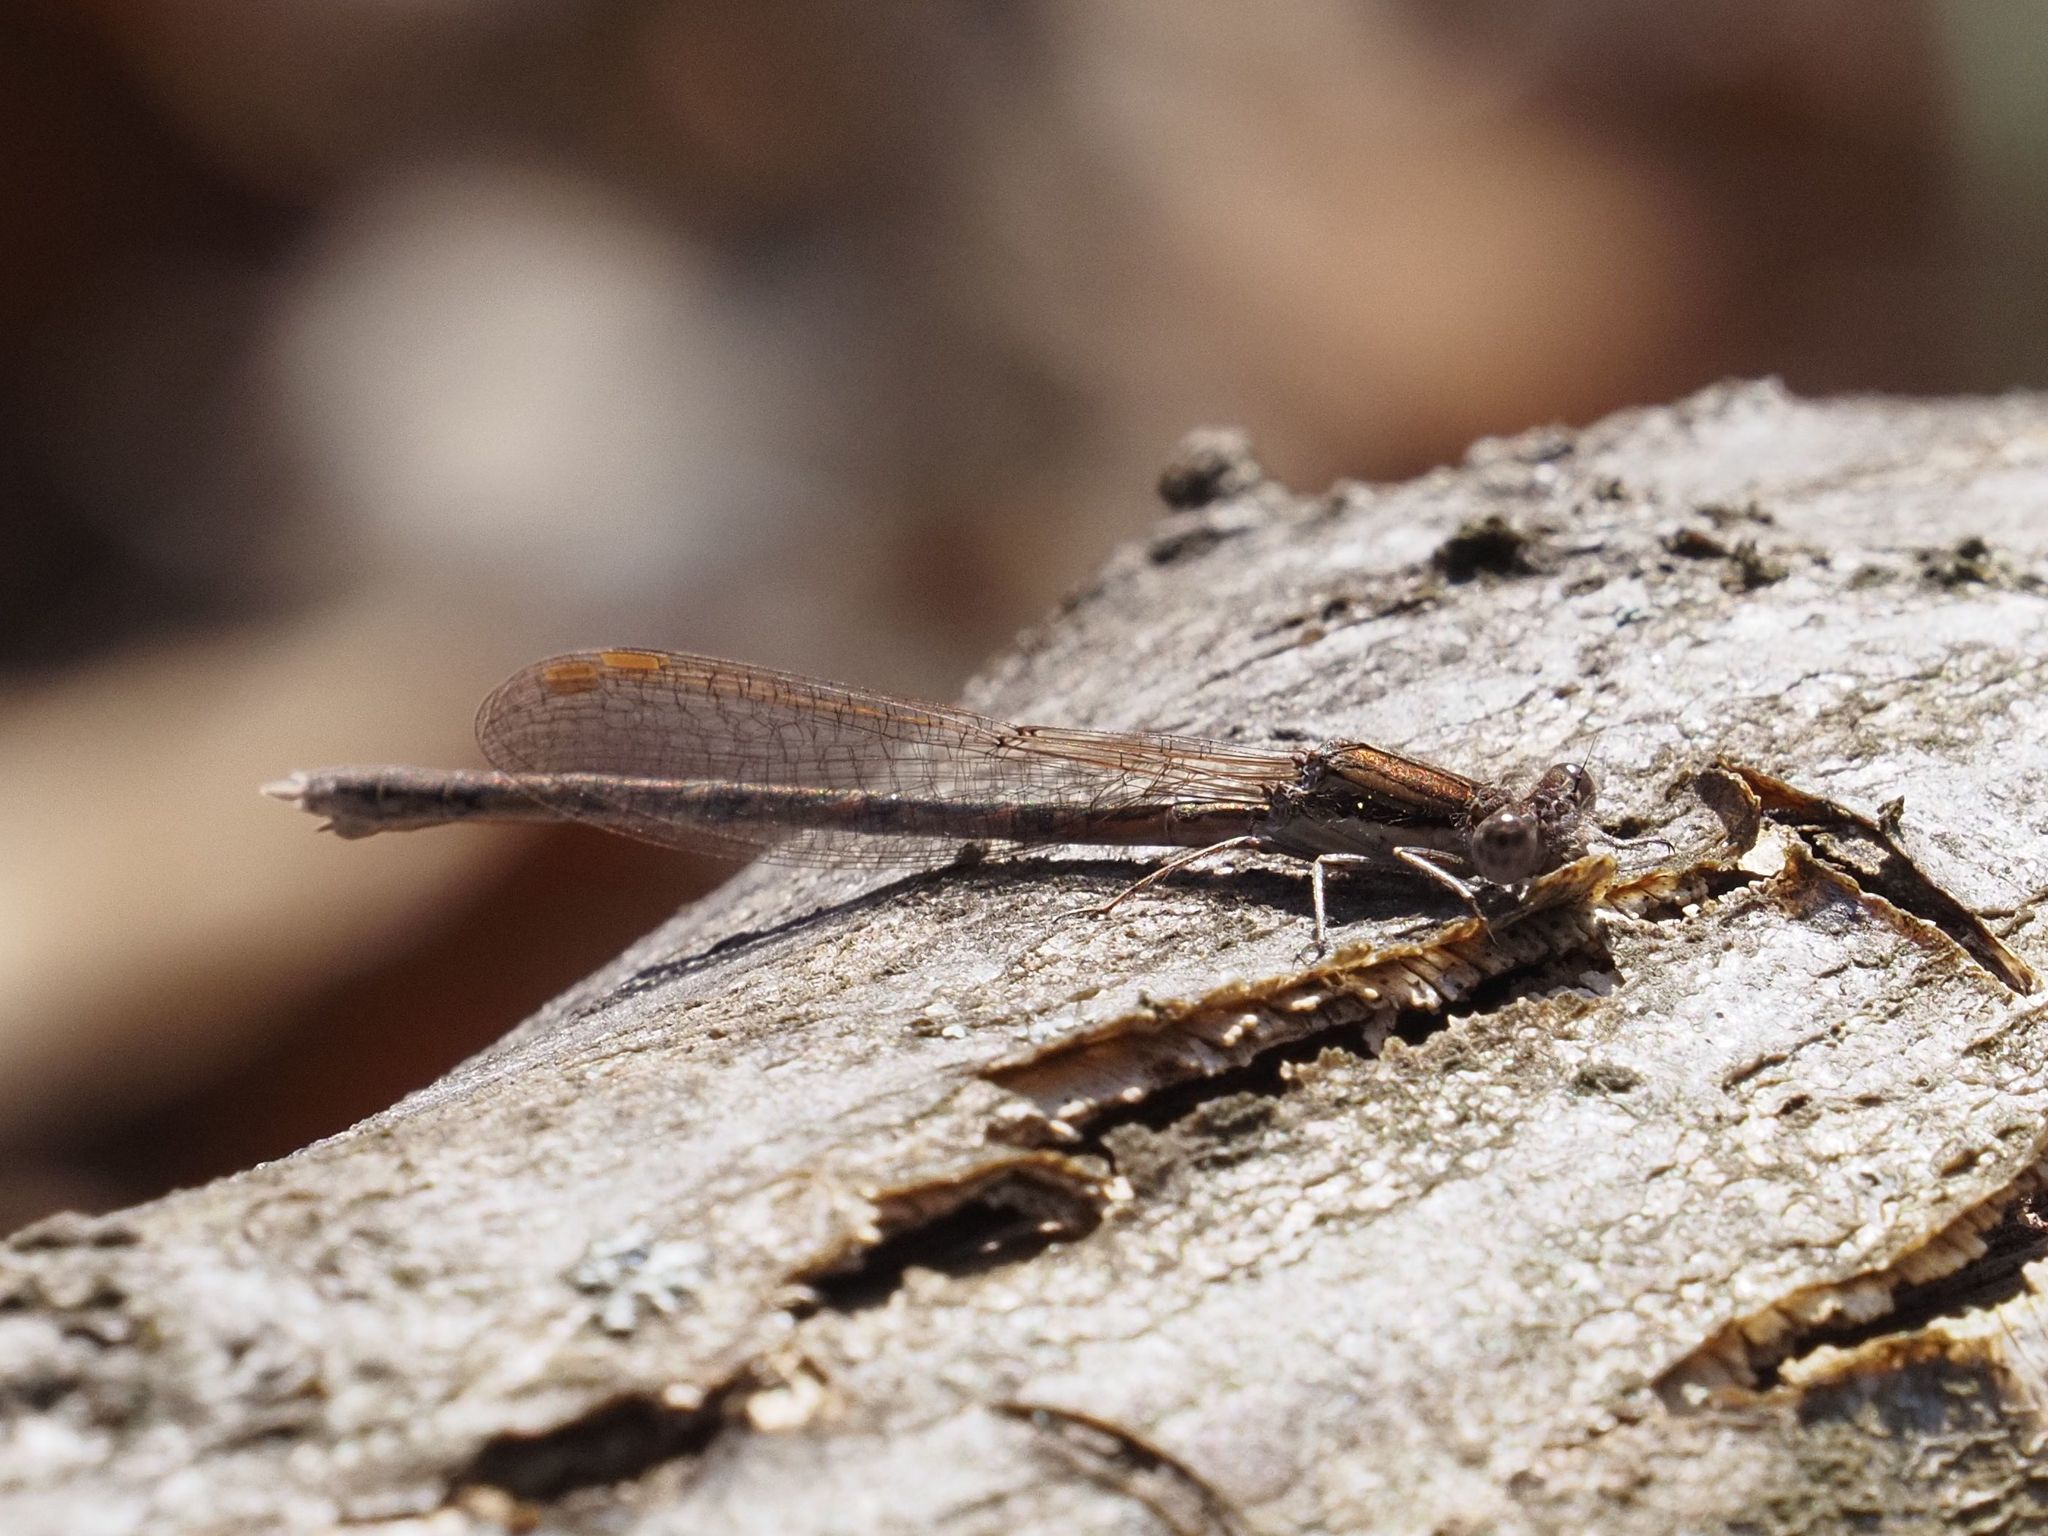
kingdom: Animalia
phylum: Arthropoda
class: Insecta
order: Odonata
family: Lestidae
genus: Sympecma
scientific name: Sympecma fusca
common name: Common winter damsel
